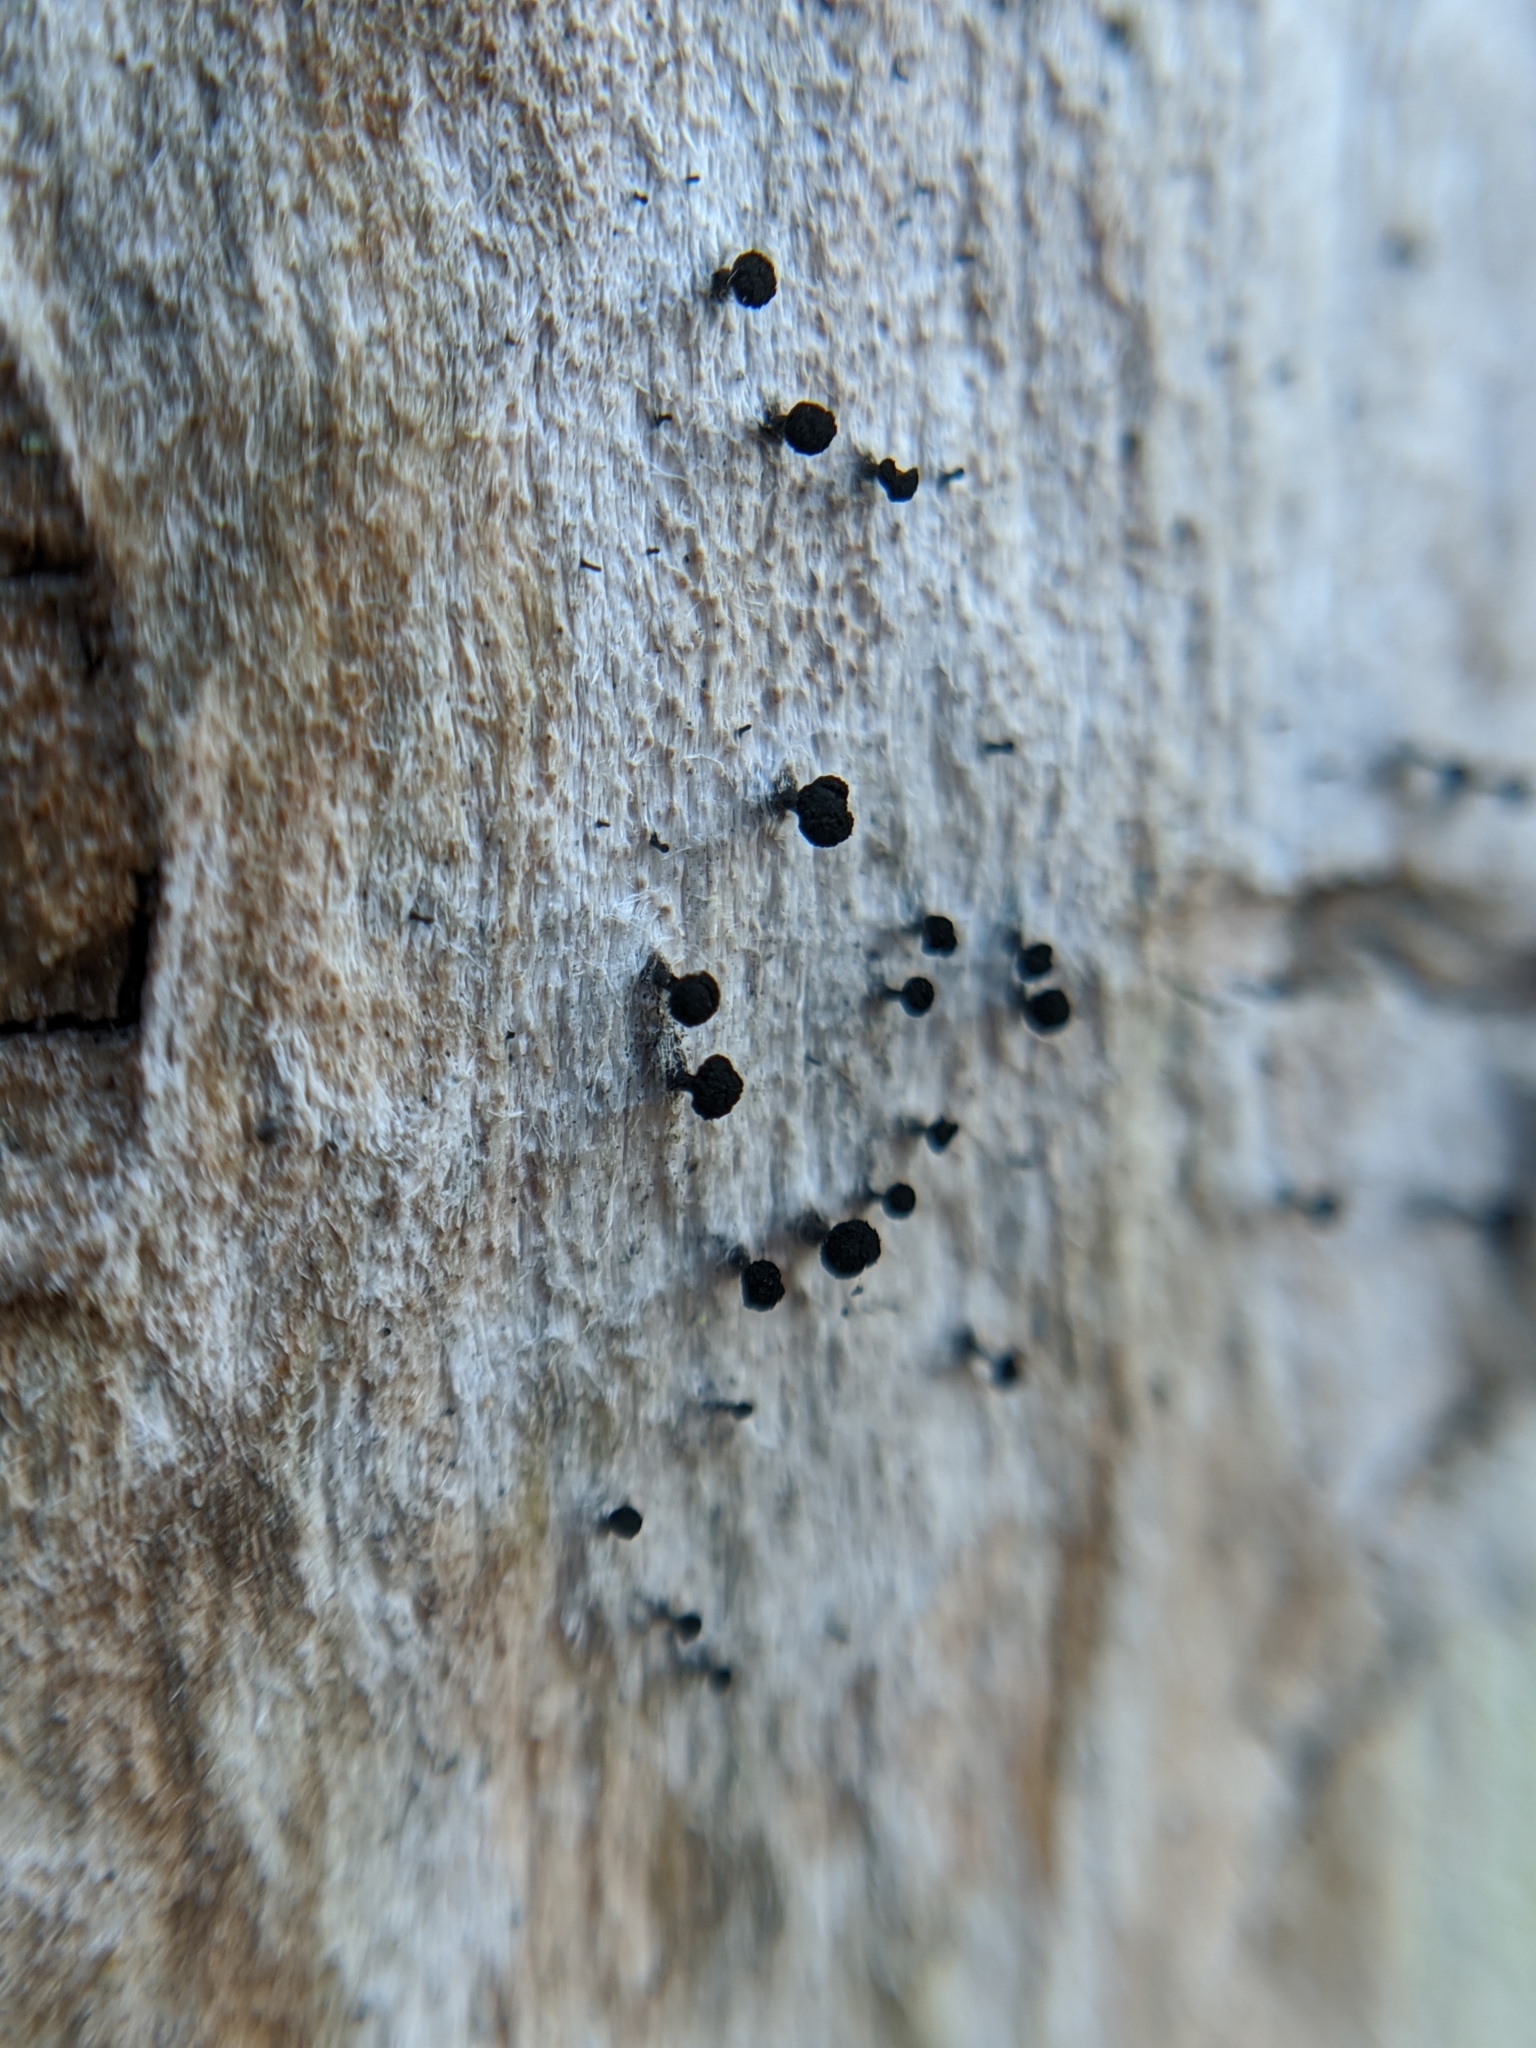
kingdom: Fungi
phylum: Ascomycota
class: Eurotiomycetes
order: Mycocaliciales
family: Mycocaliciaceae
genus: Mycocalicium
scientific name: Mycocalicium subtile
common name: Snag pin lichen
